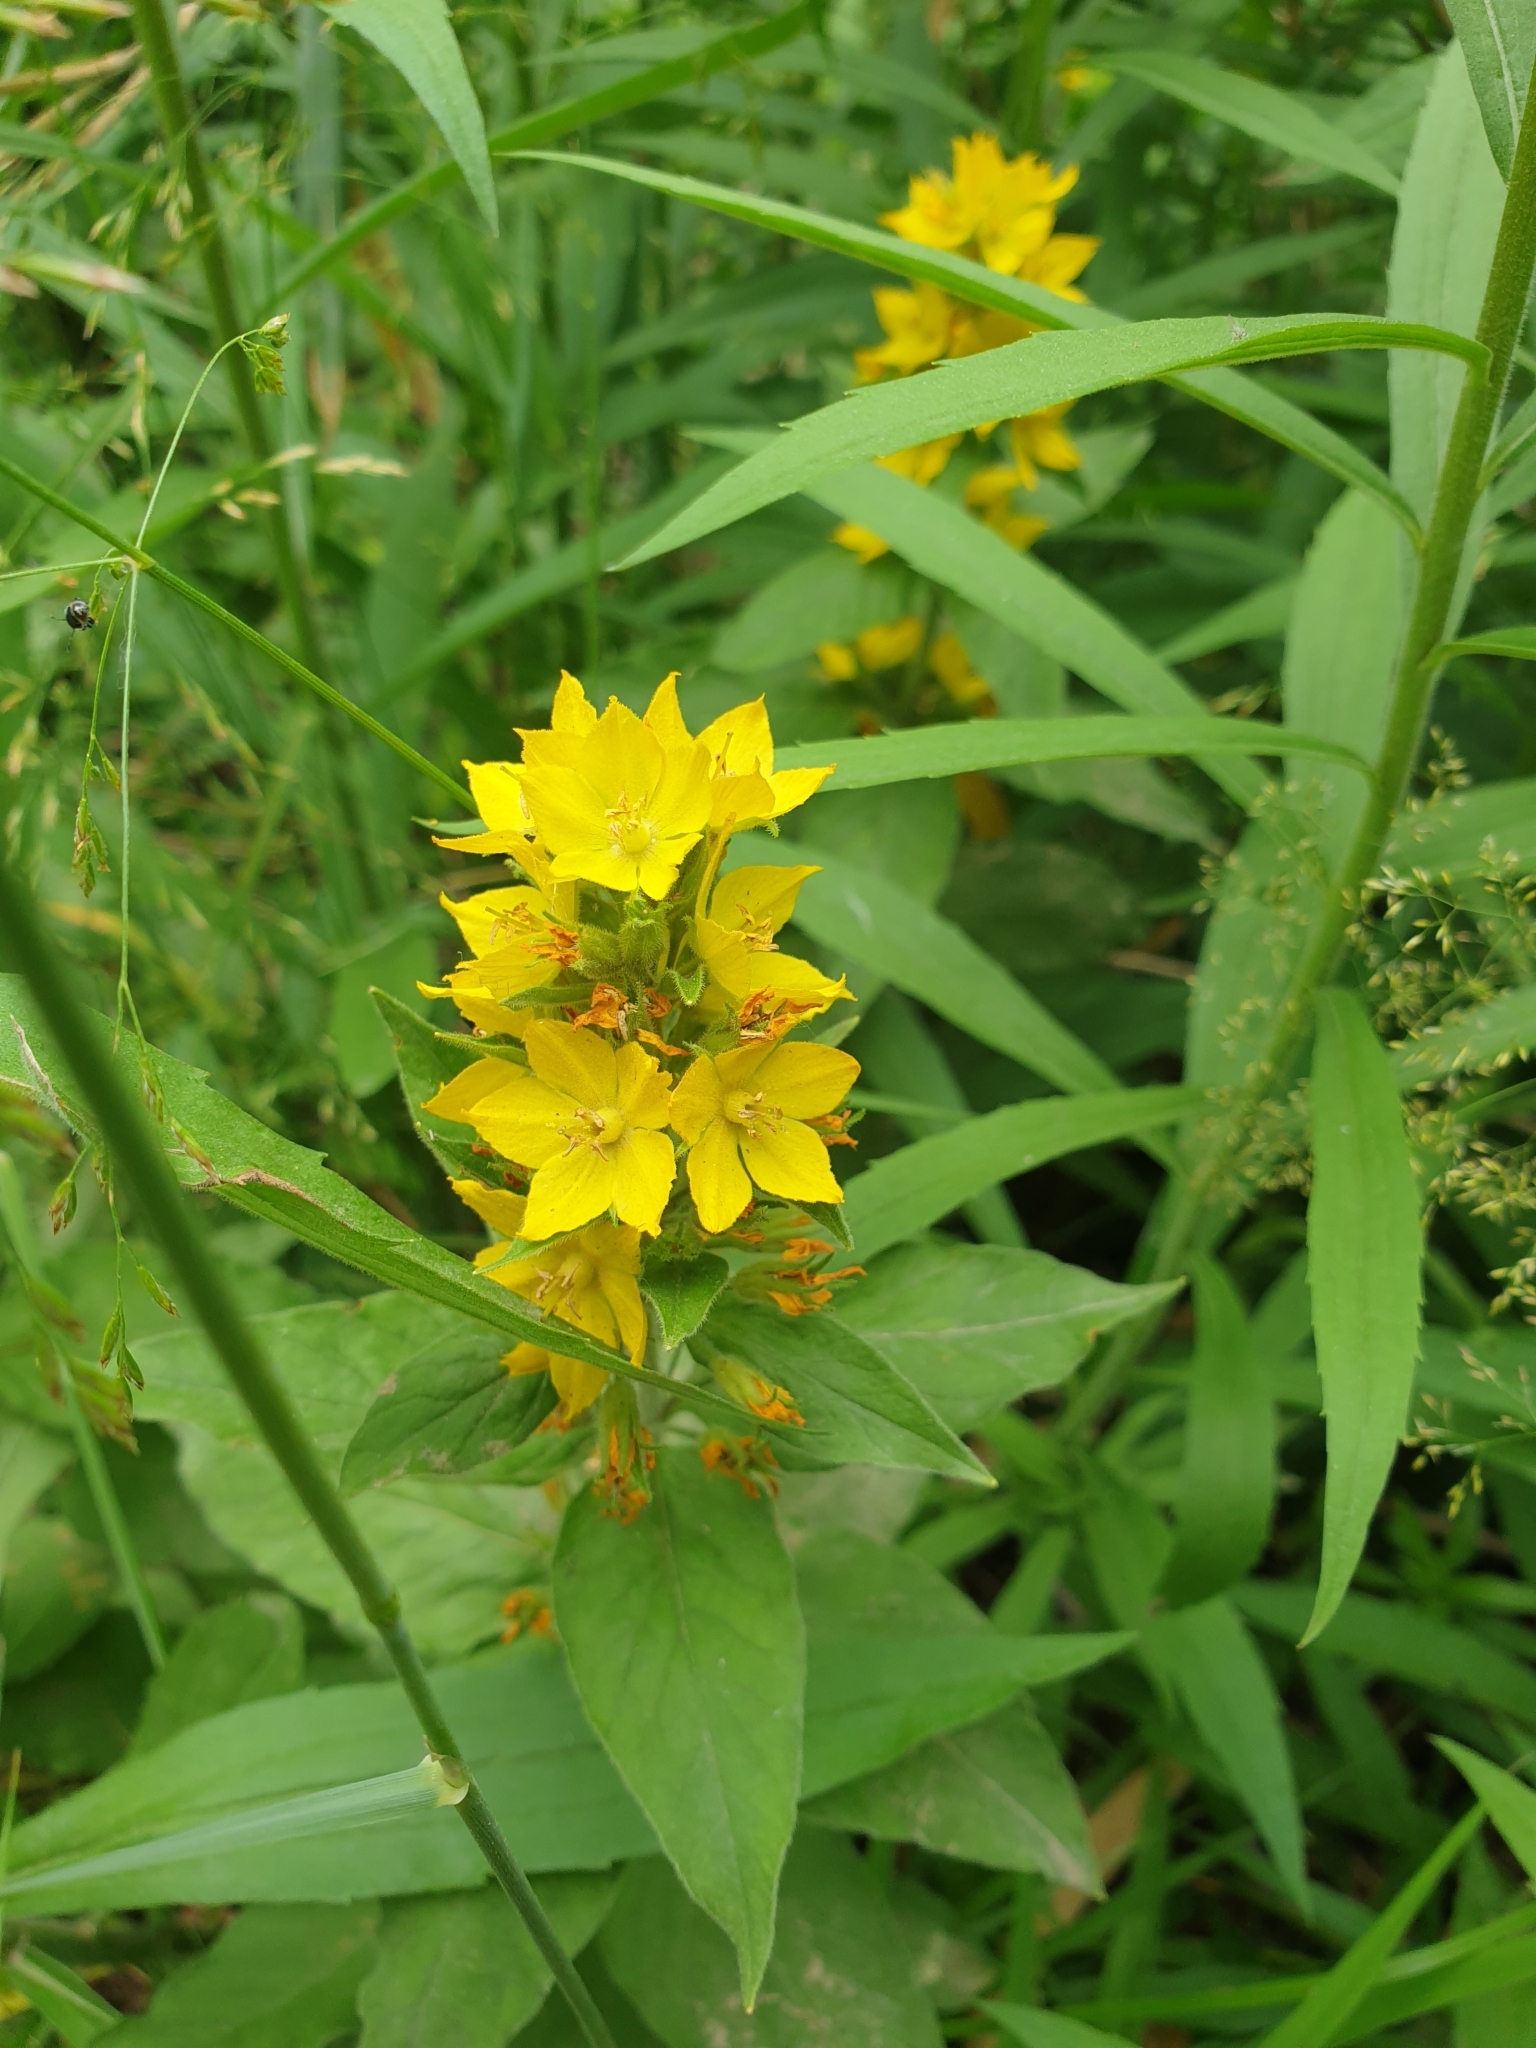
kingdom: Plantae
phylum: Tracheophyta
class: Magnoliopsida
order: Ericales
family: Primulaceae
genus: Lysimachia
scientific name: Lysimachia punctata
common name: Dotted loosestrife
